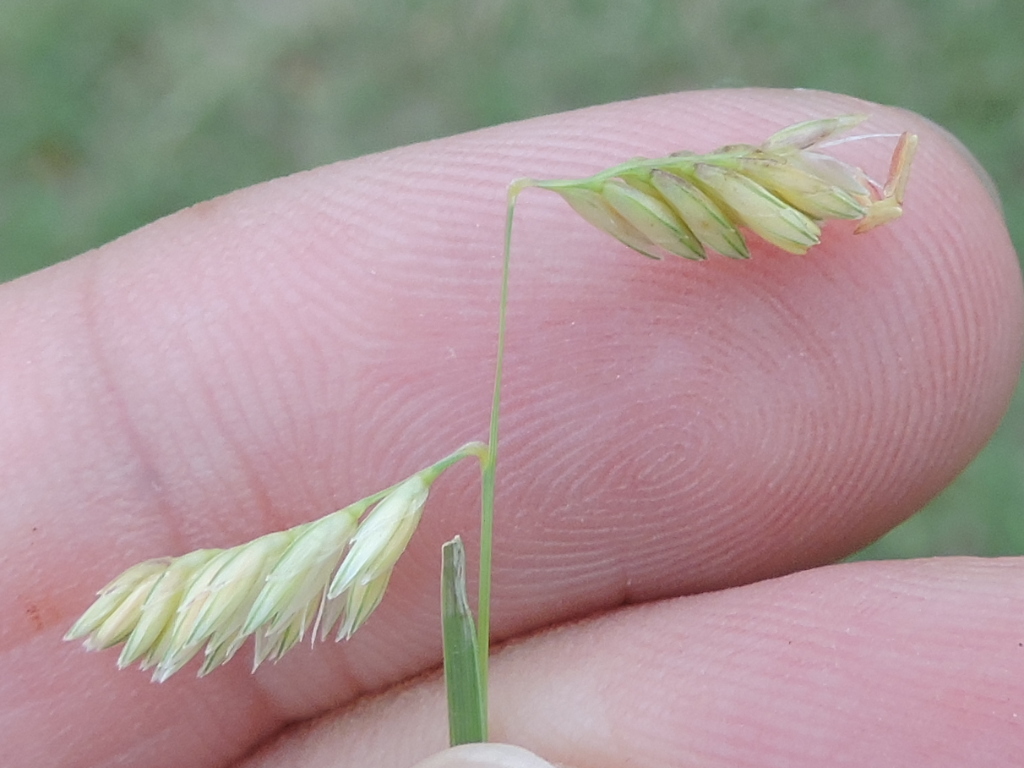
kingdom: Plantae
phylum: Tracheophyta
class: Liliopsida
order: Poales
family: Poaceae
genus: Bouteloua
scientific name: Bouteloua dactyloides
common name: Buffalo grass
